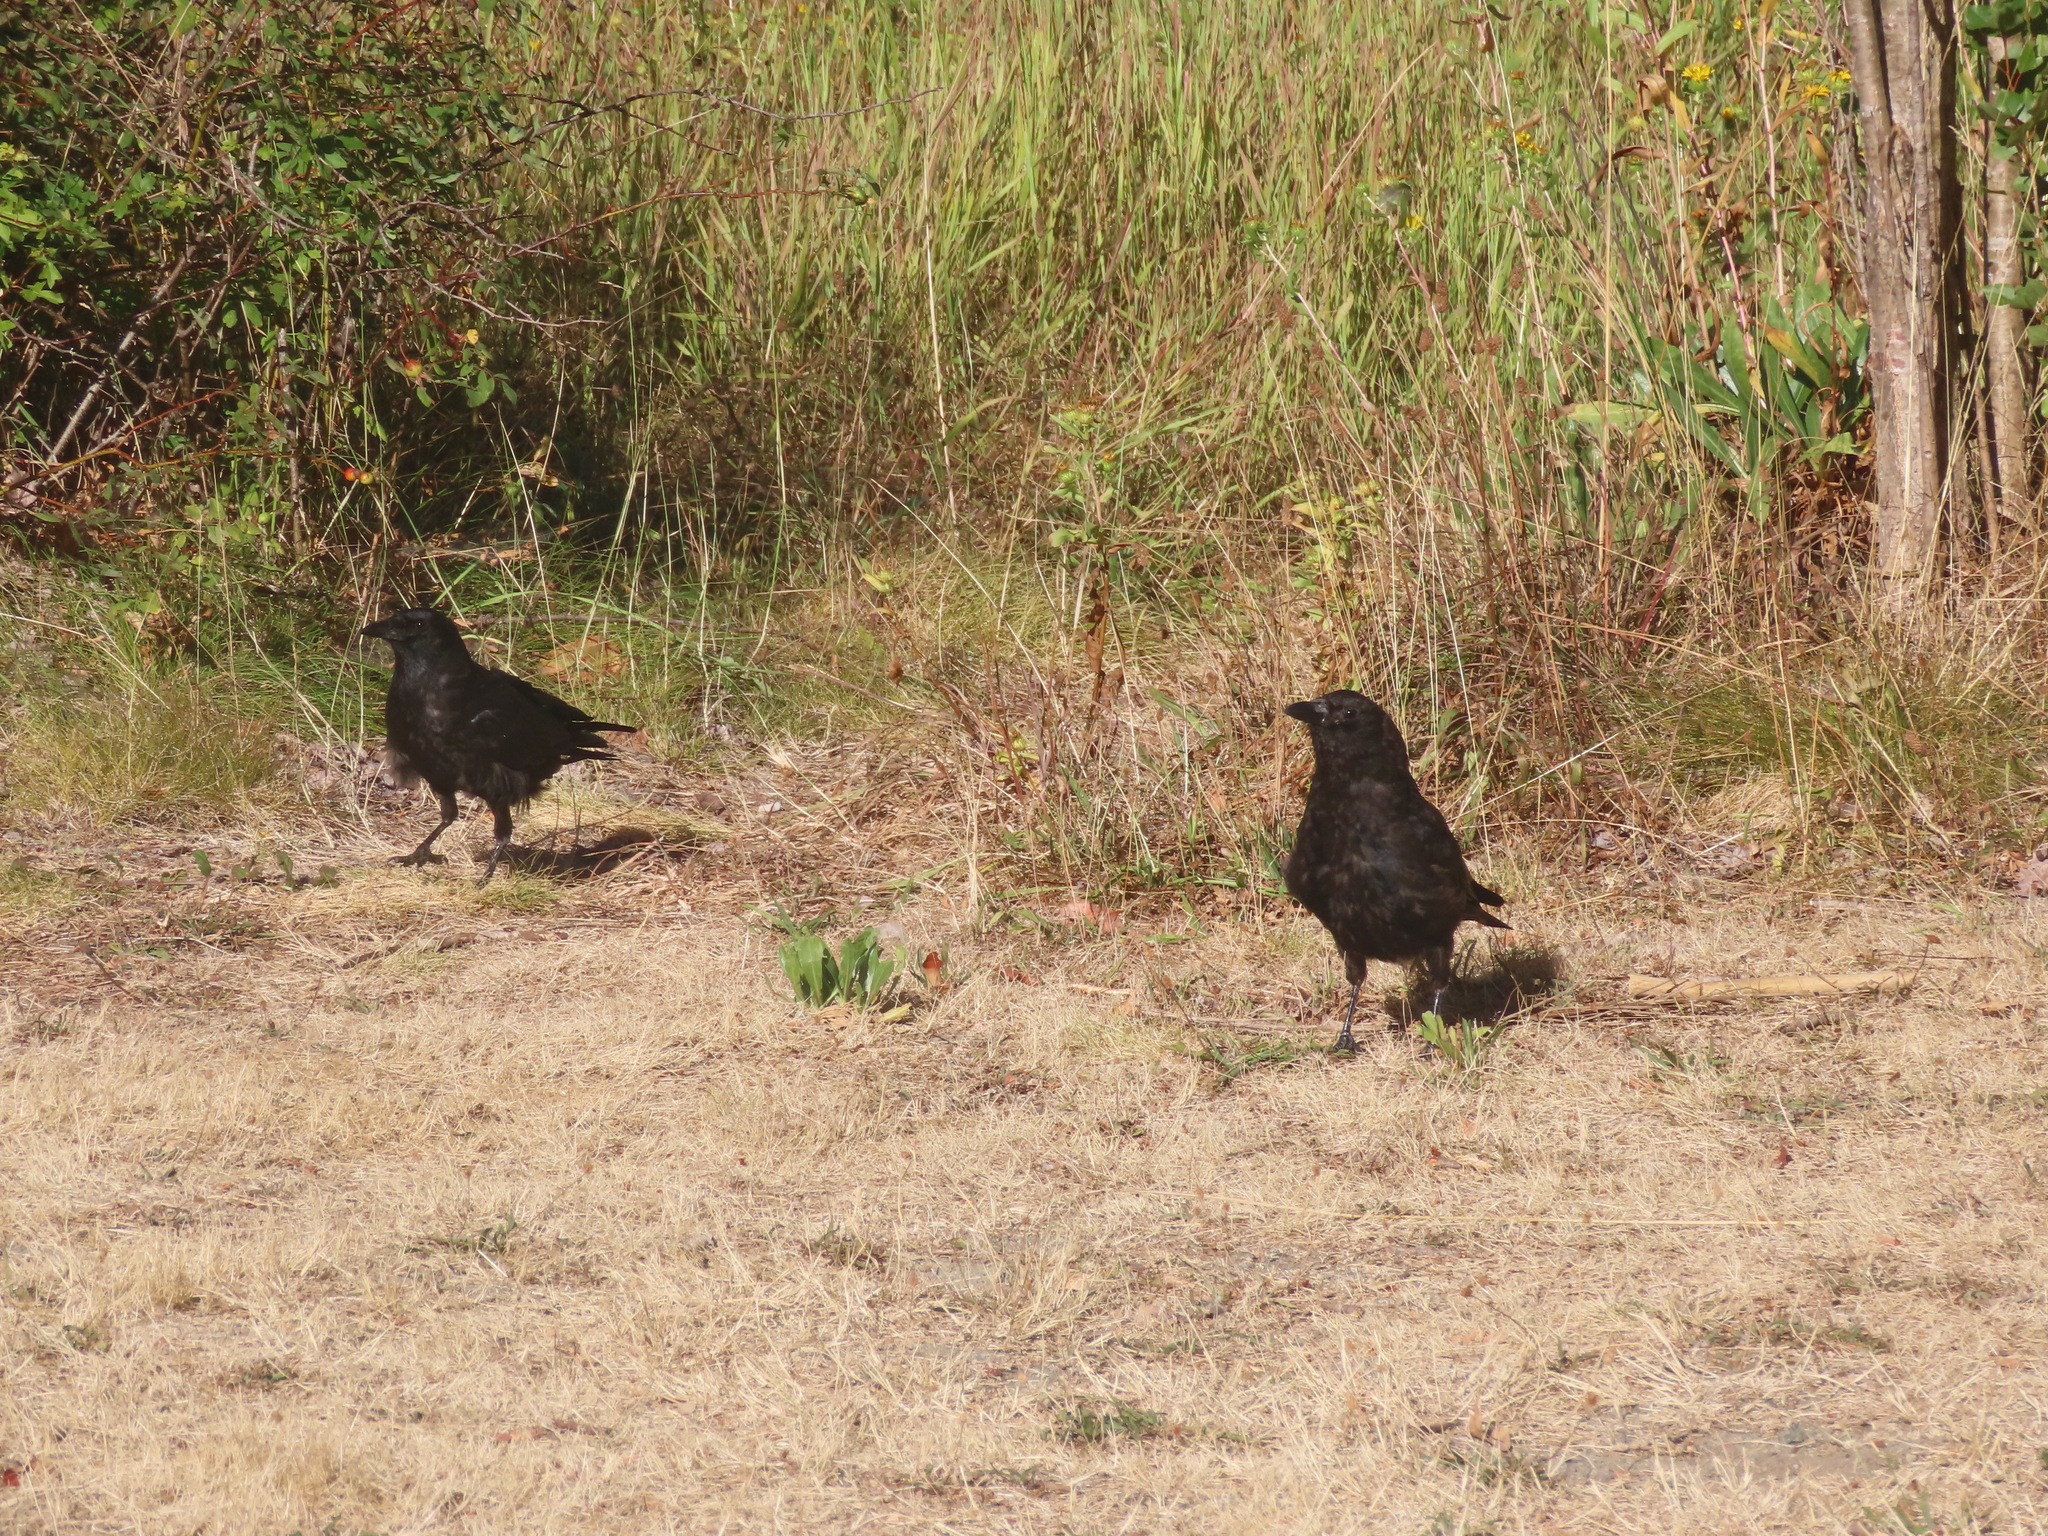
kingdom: Animalia
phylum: Chordata
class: Aves
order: Passeriformes
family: Corvidae
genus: Corvus
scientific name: Corvus brachyrhynchos
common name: American crow
